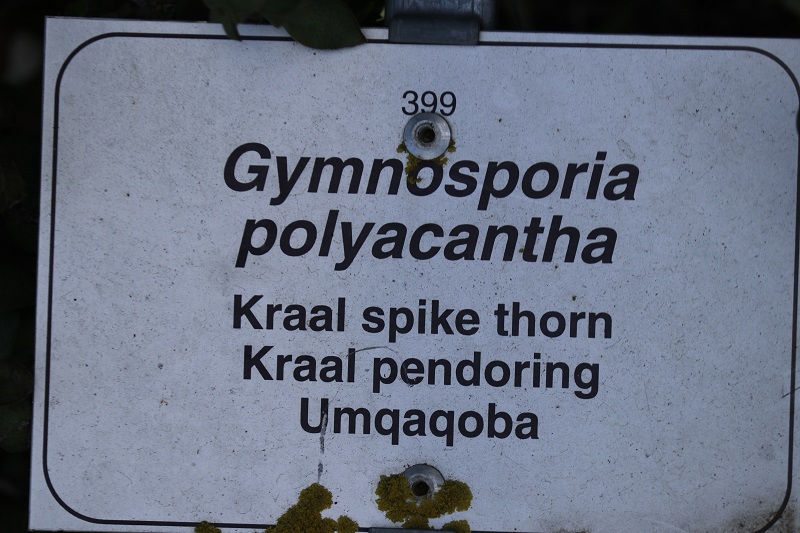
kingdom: Plantae
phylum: Tracheophyta
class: Magnoliopsida
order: Celastrales
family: Celastraceae
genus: Gymnosporia
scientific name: Gymnosporia polyacantha
